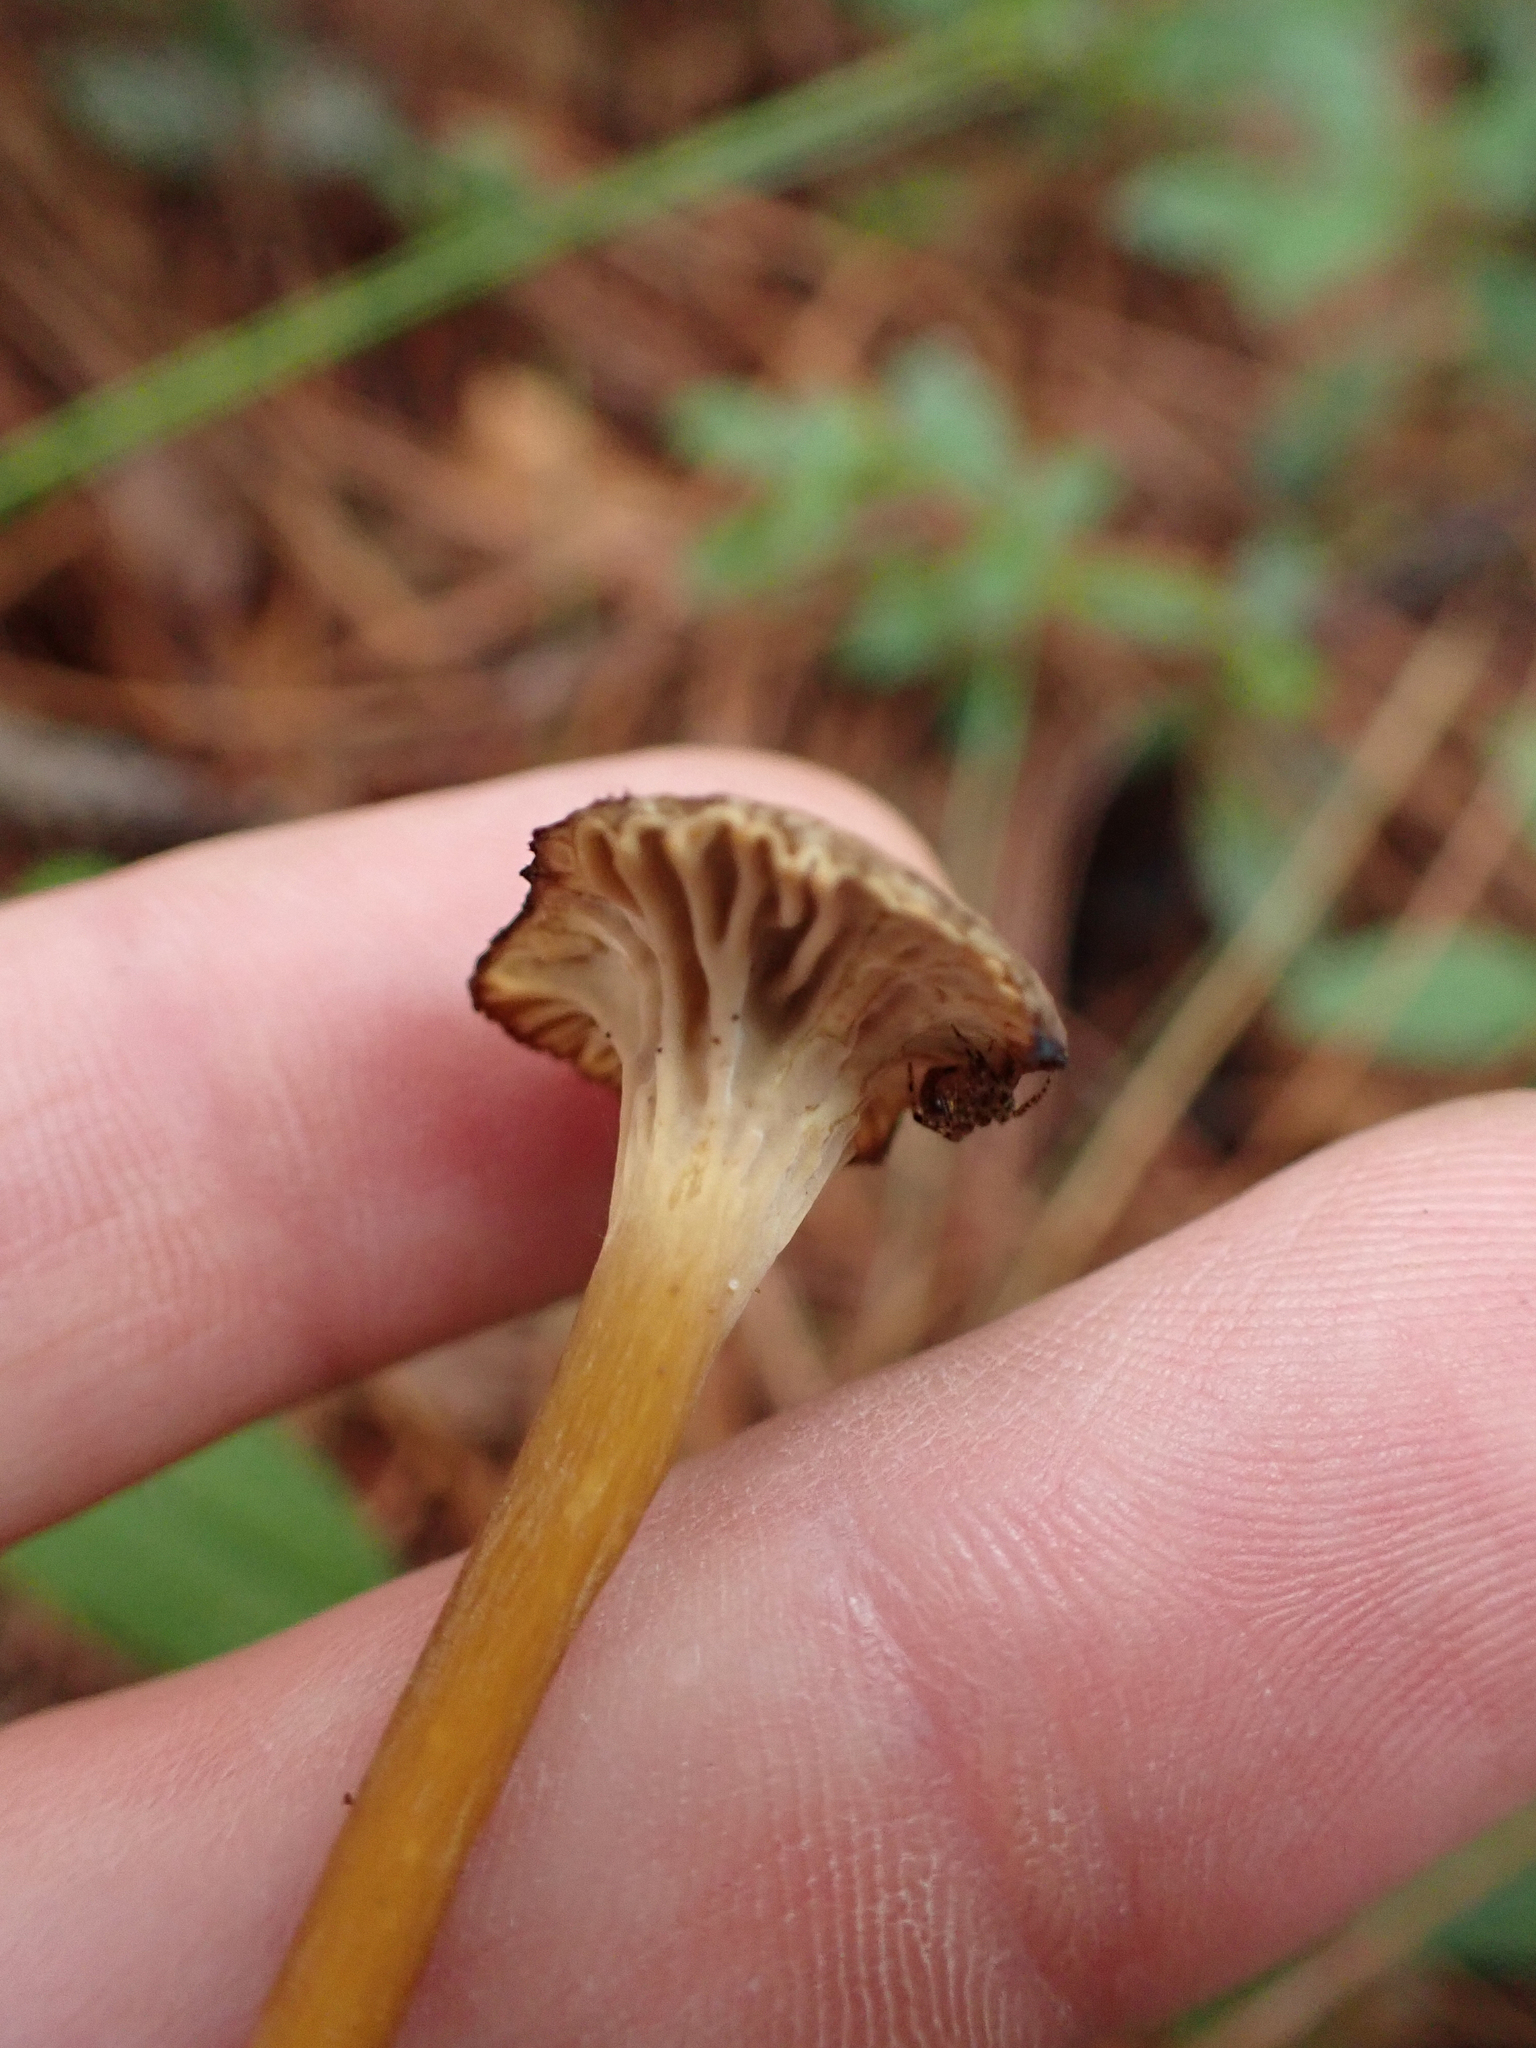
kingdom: Fungi
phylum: Basidiomycota
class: Agaricomycetes
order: Cantharellales
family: Hydnaceae
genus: Craterellus
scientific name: Craterellus tubaeformis
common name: Yellowfoot
